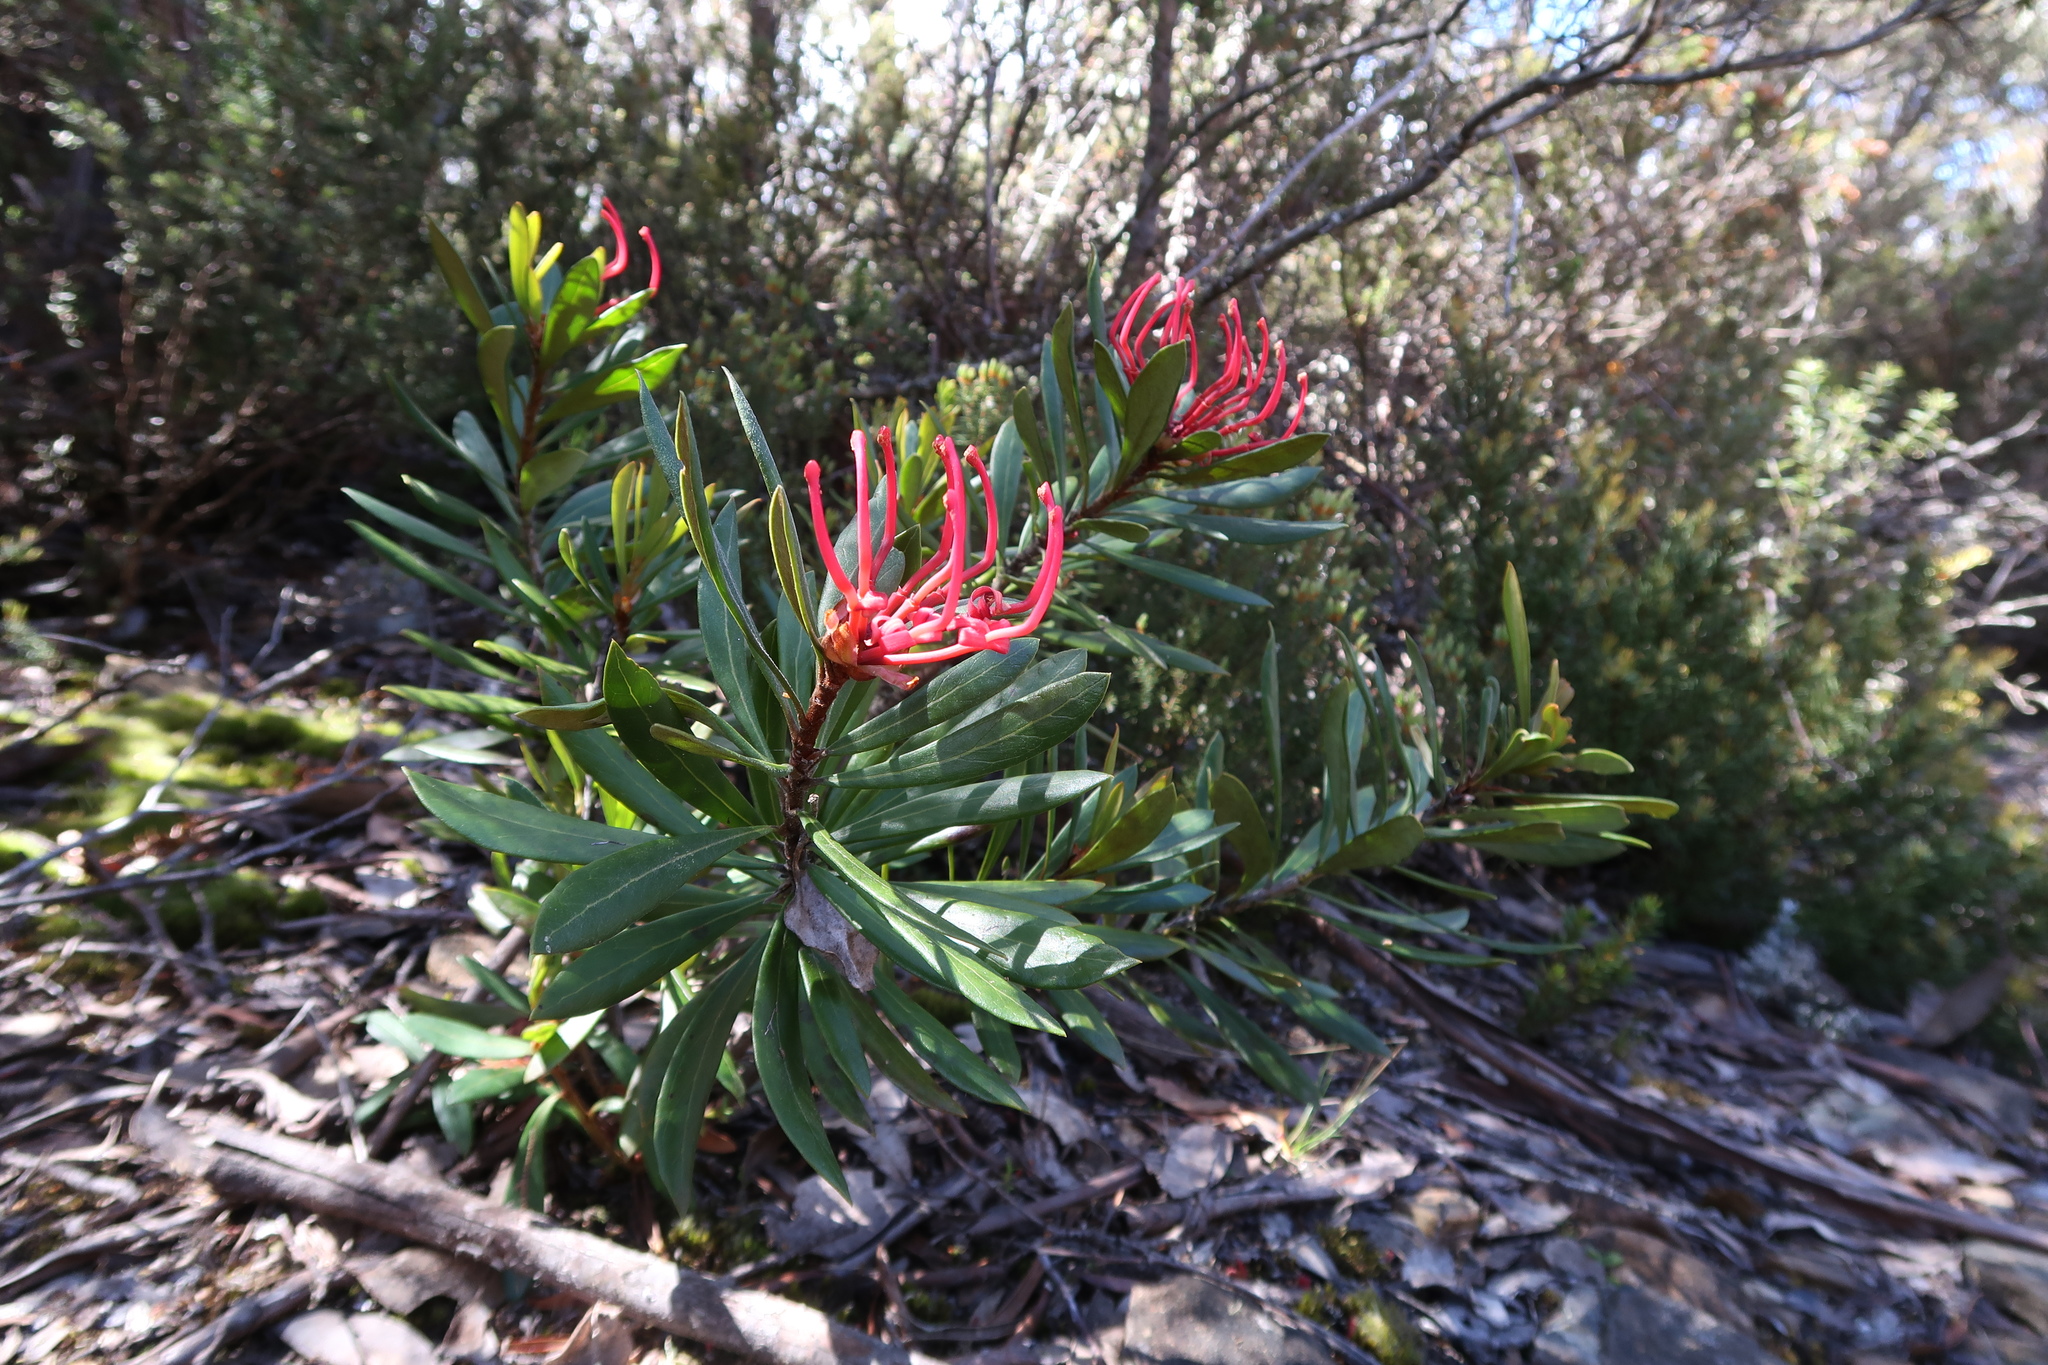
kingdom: Plantae
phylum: Tracheophyta
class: Magnoliopsida
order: Proteales
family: Proteaceae
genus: Telopea
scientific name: Telopea truncata
